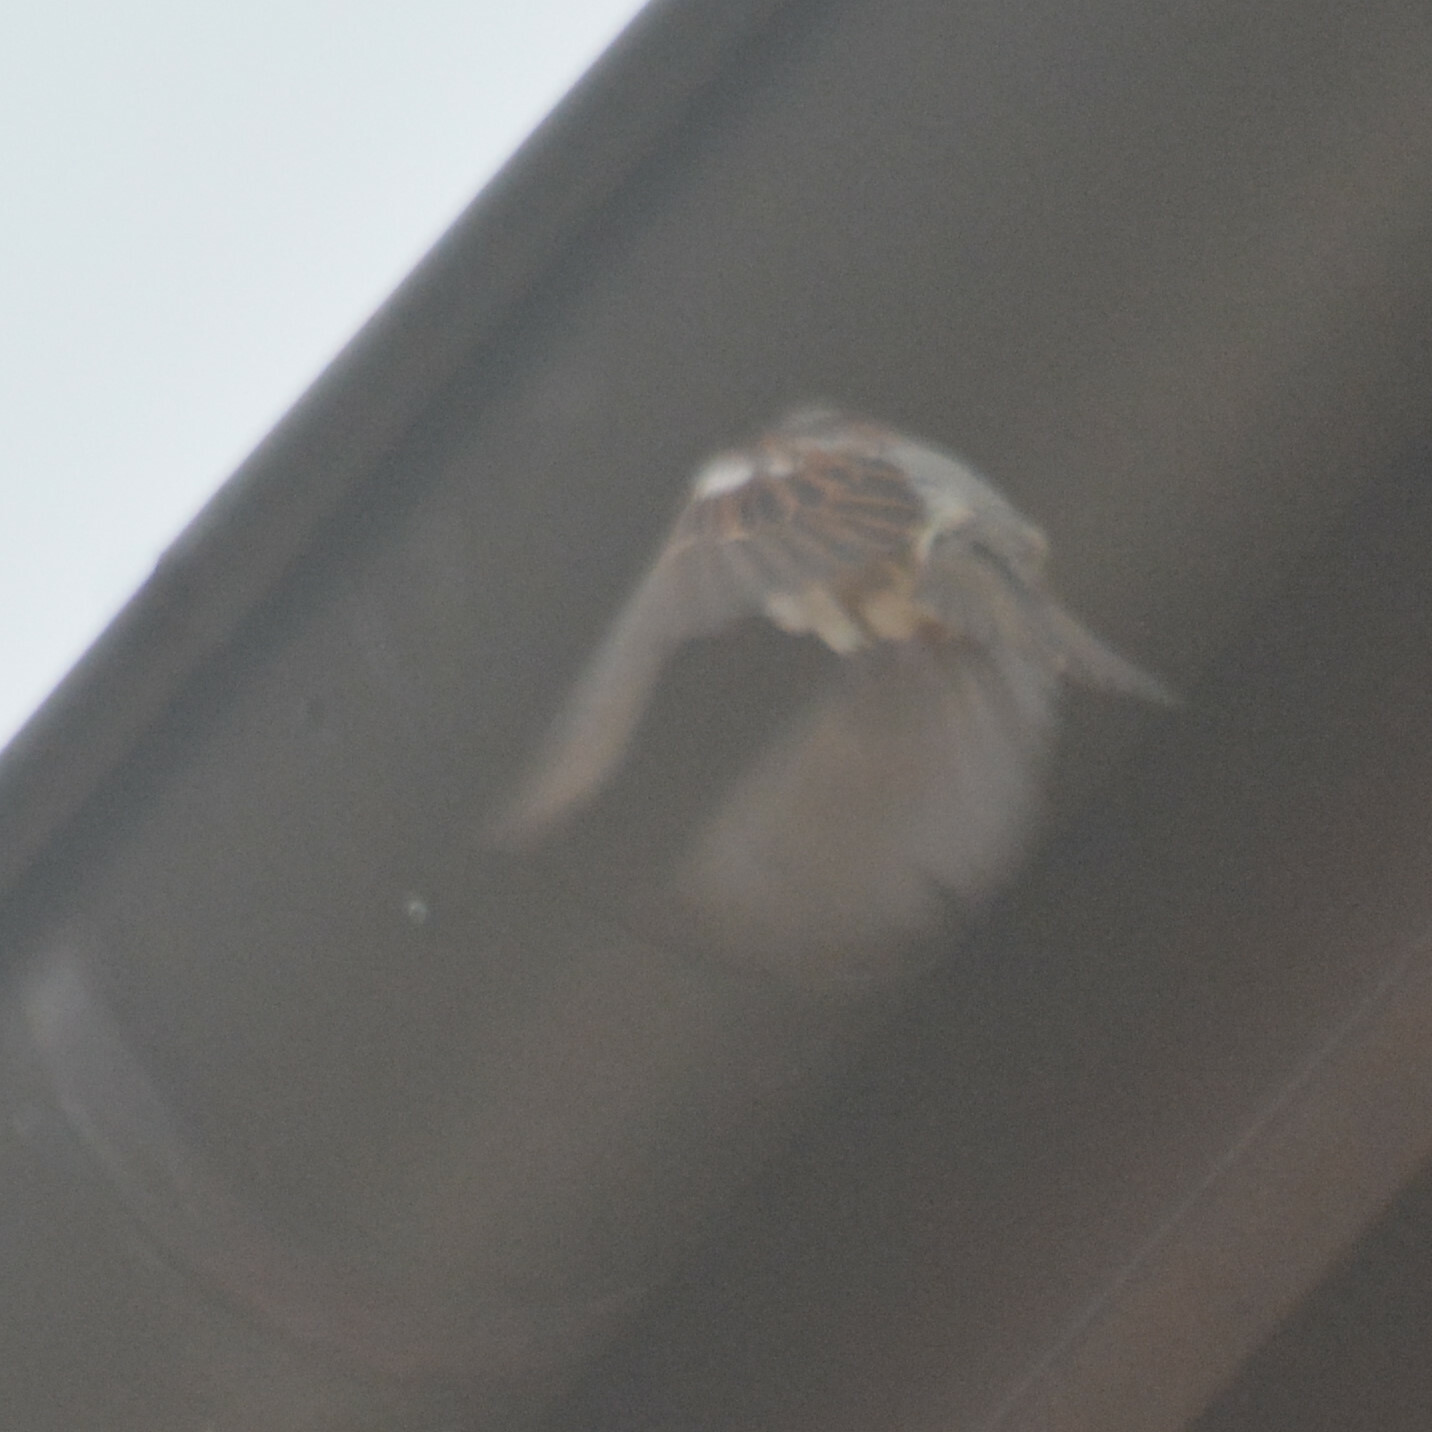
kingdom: Animalia
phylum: Chordata
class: Aves
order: Passeriformes
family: Passeridae
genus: Passer
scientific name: Passer domesticus
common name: House sparrow
